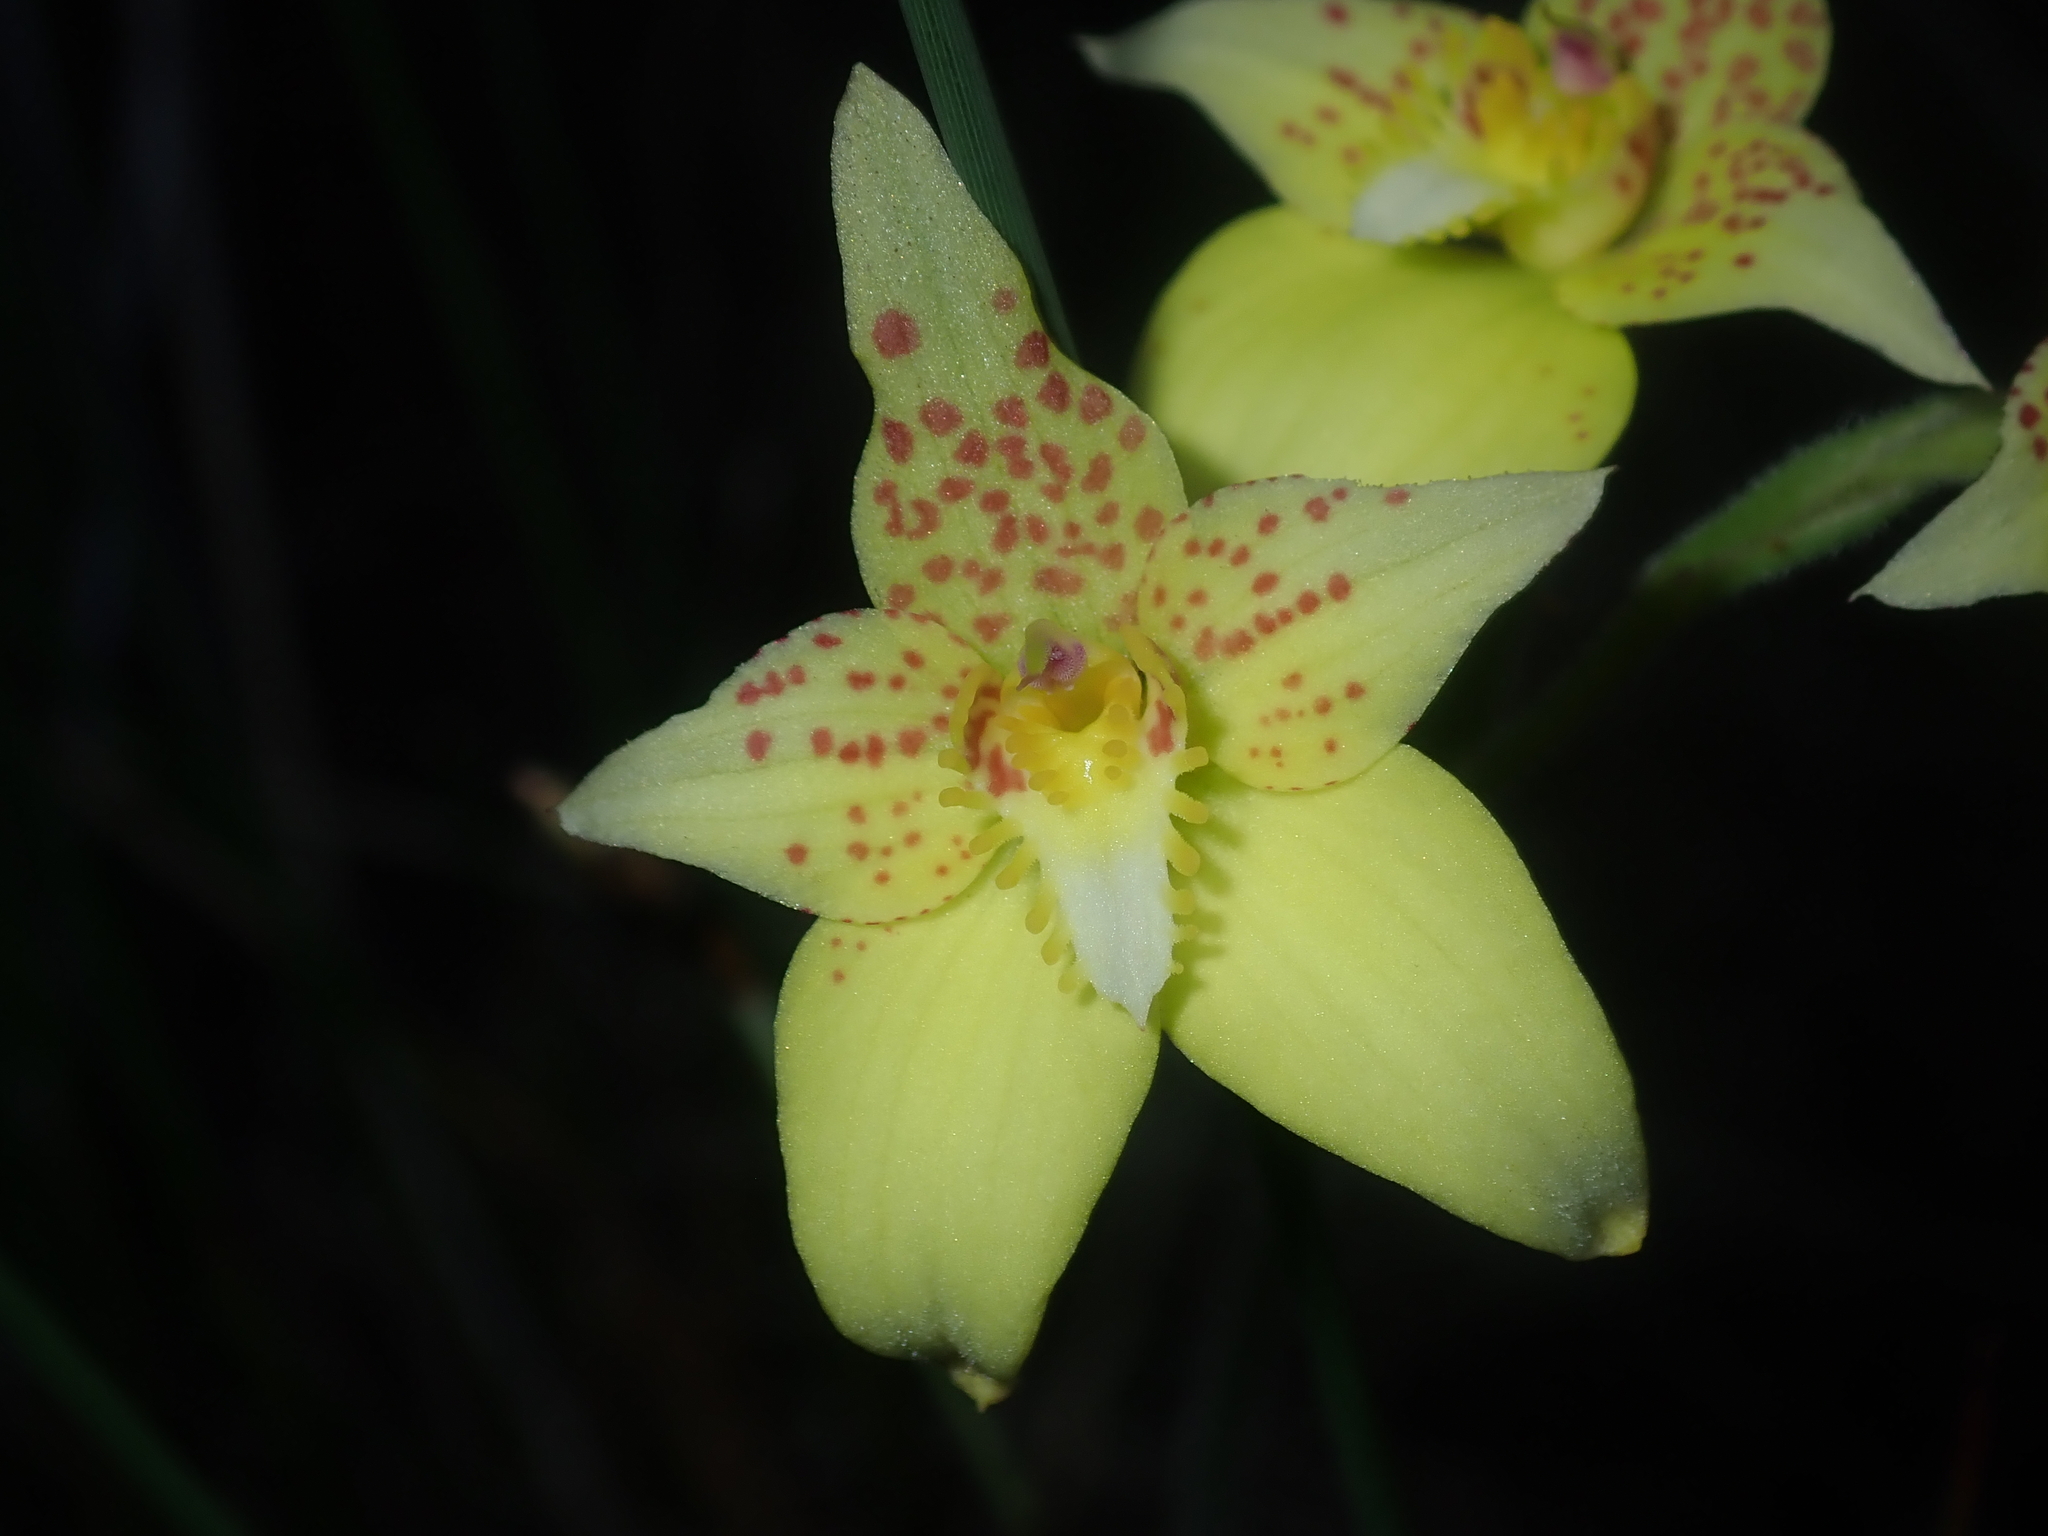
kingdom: Plantae
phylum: Tracheophyta
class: Liliopsida
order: Asparagales
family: Orchidaceae
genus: Caladenia
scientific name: Caladenia flava
